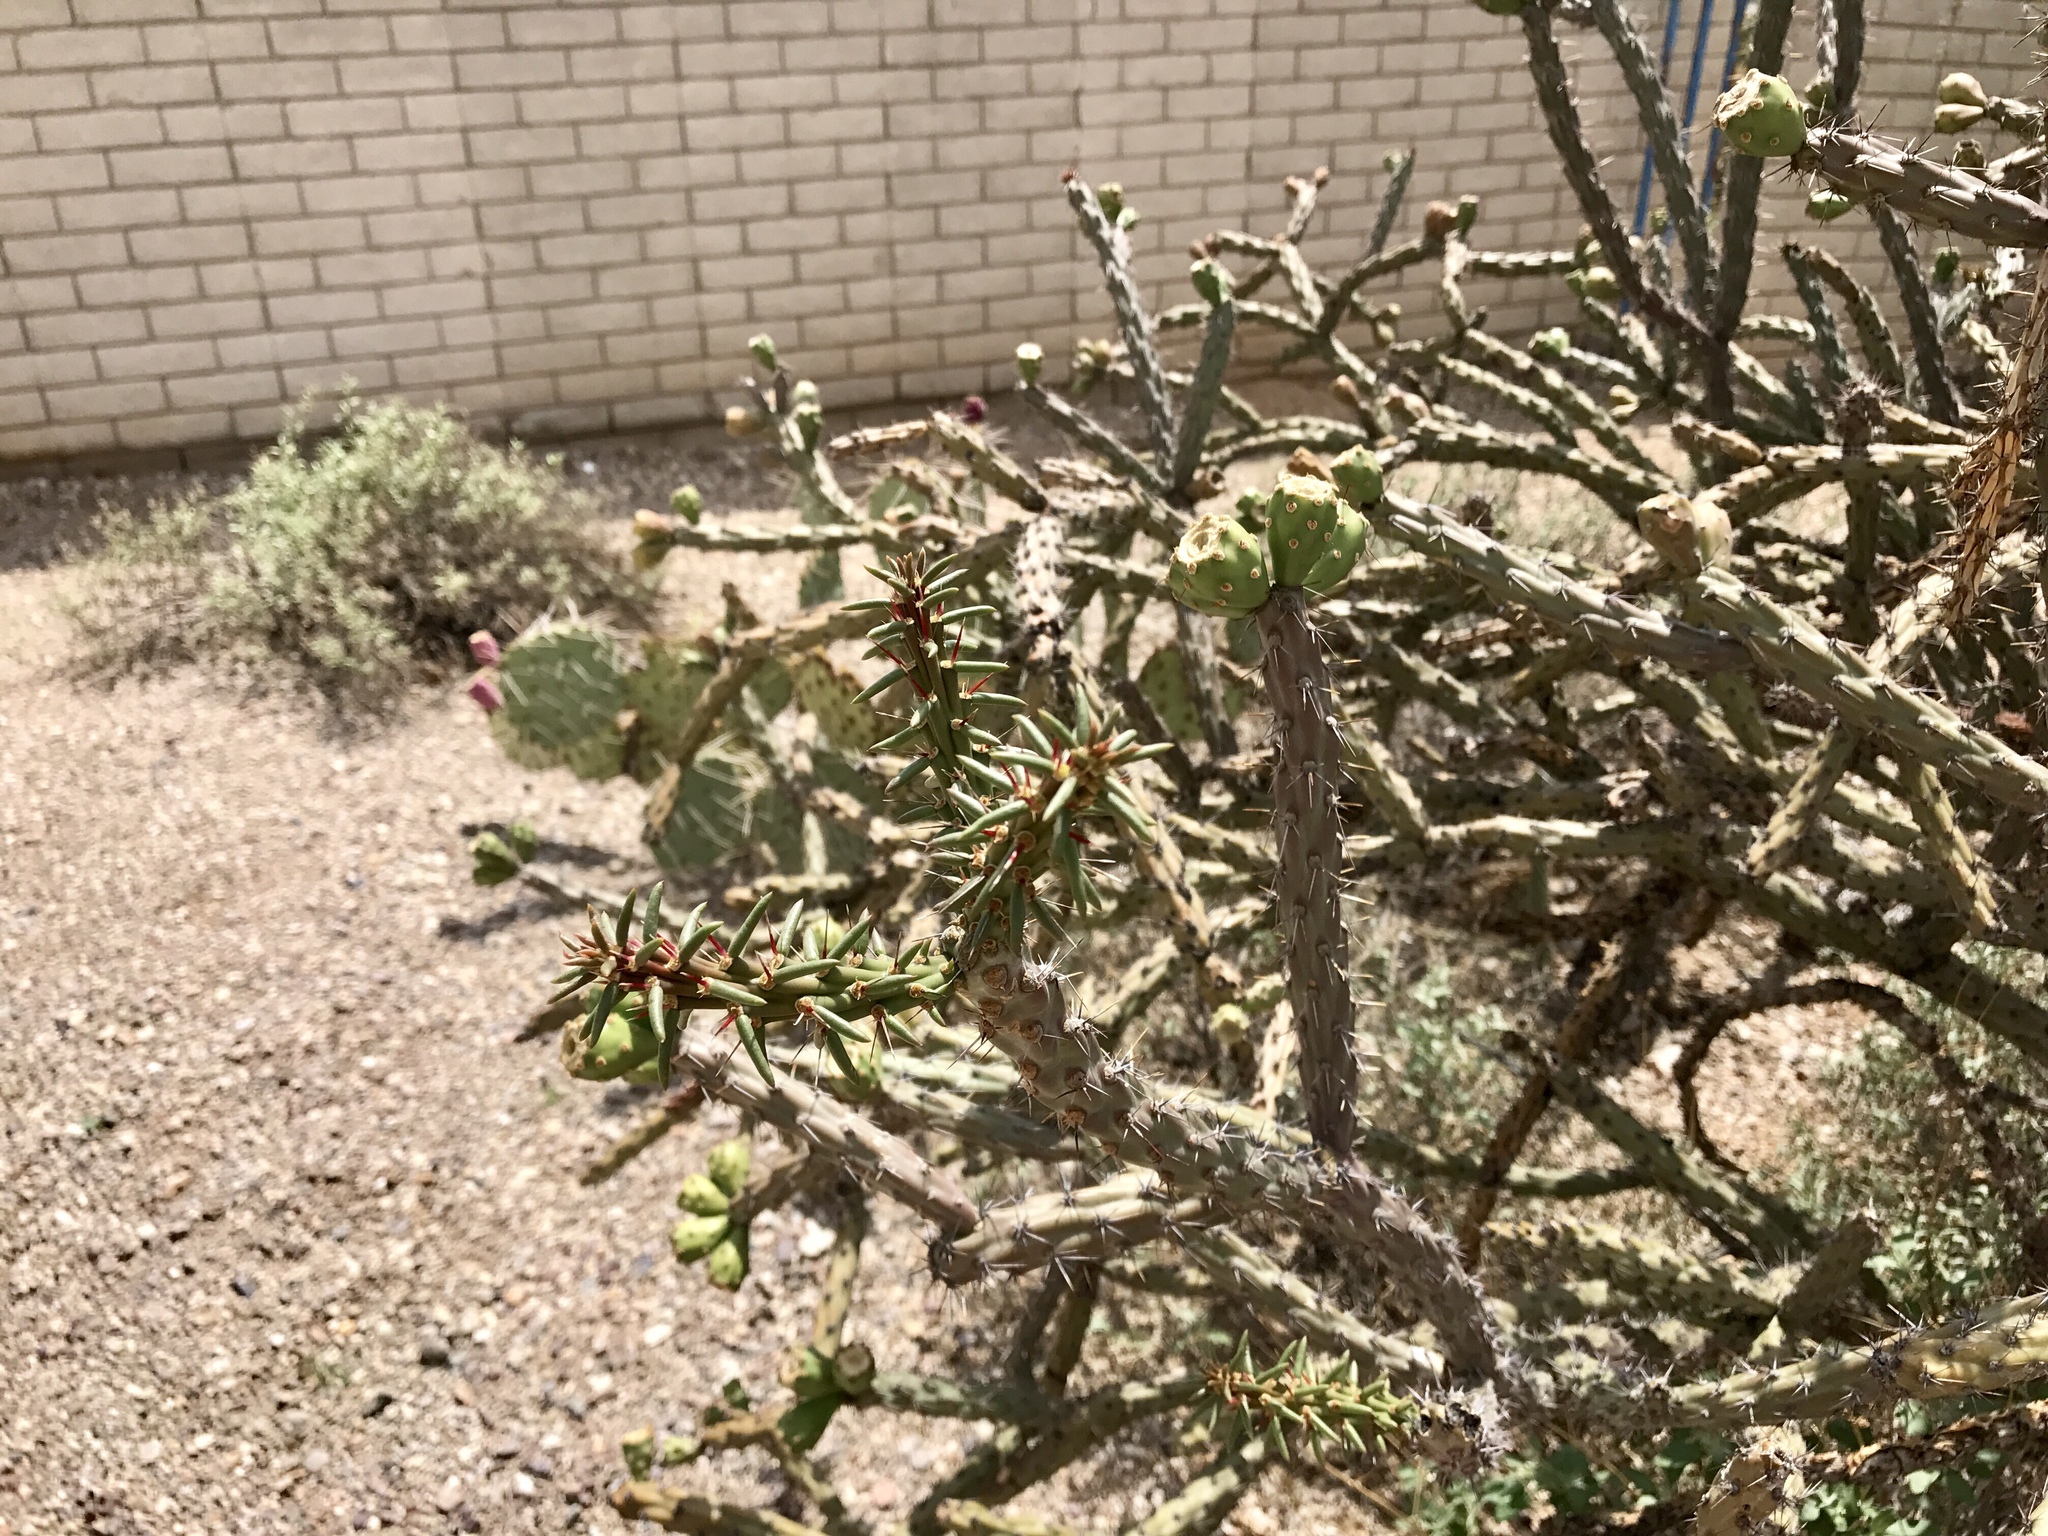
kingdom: Plantae
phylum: Tracheophyta
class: Magnoliopsida
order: Caryophyllales
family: Cactaceae
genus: Cylindropuntia
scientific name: Cylindropuntia thurberi
